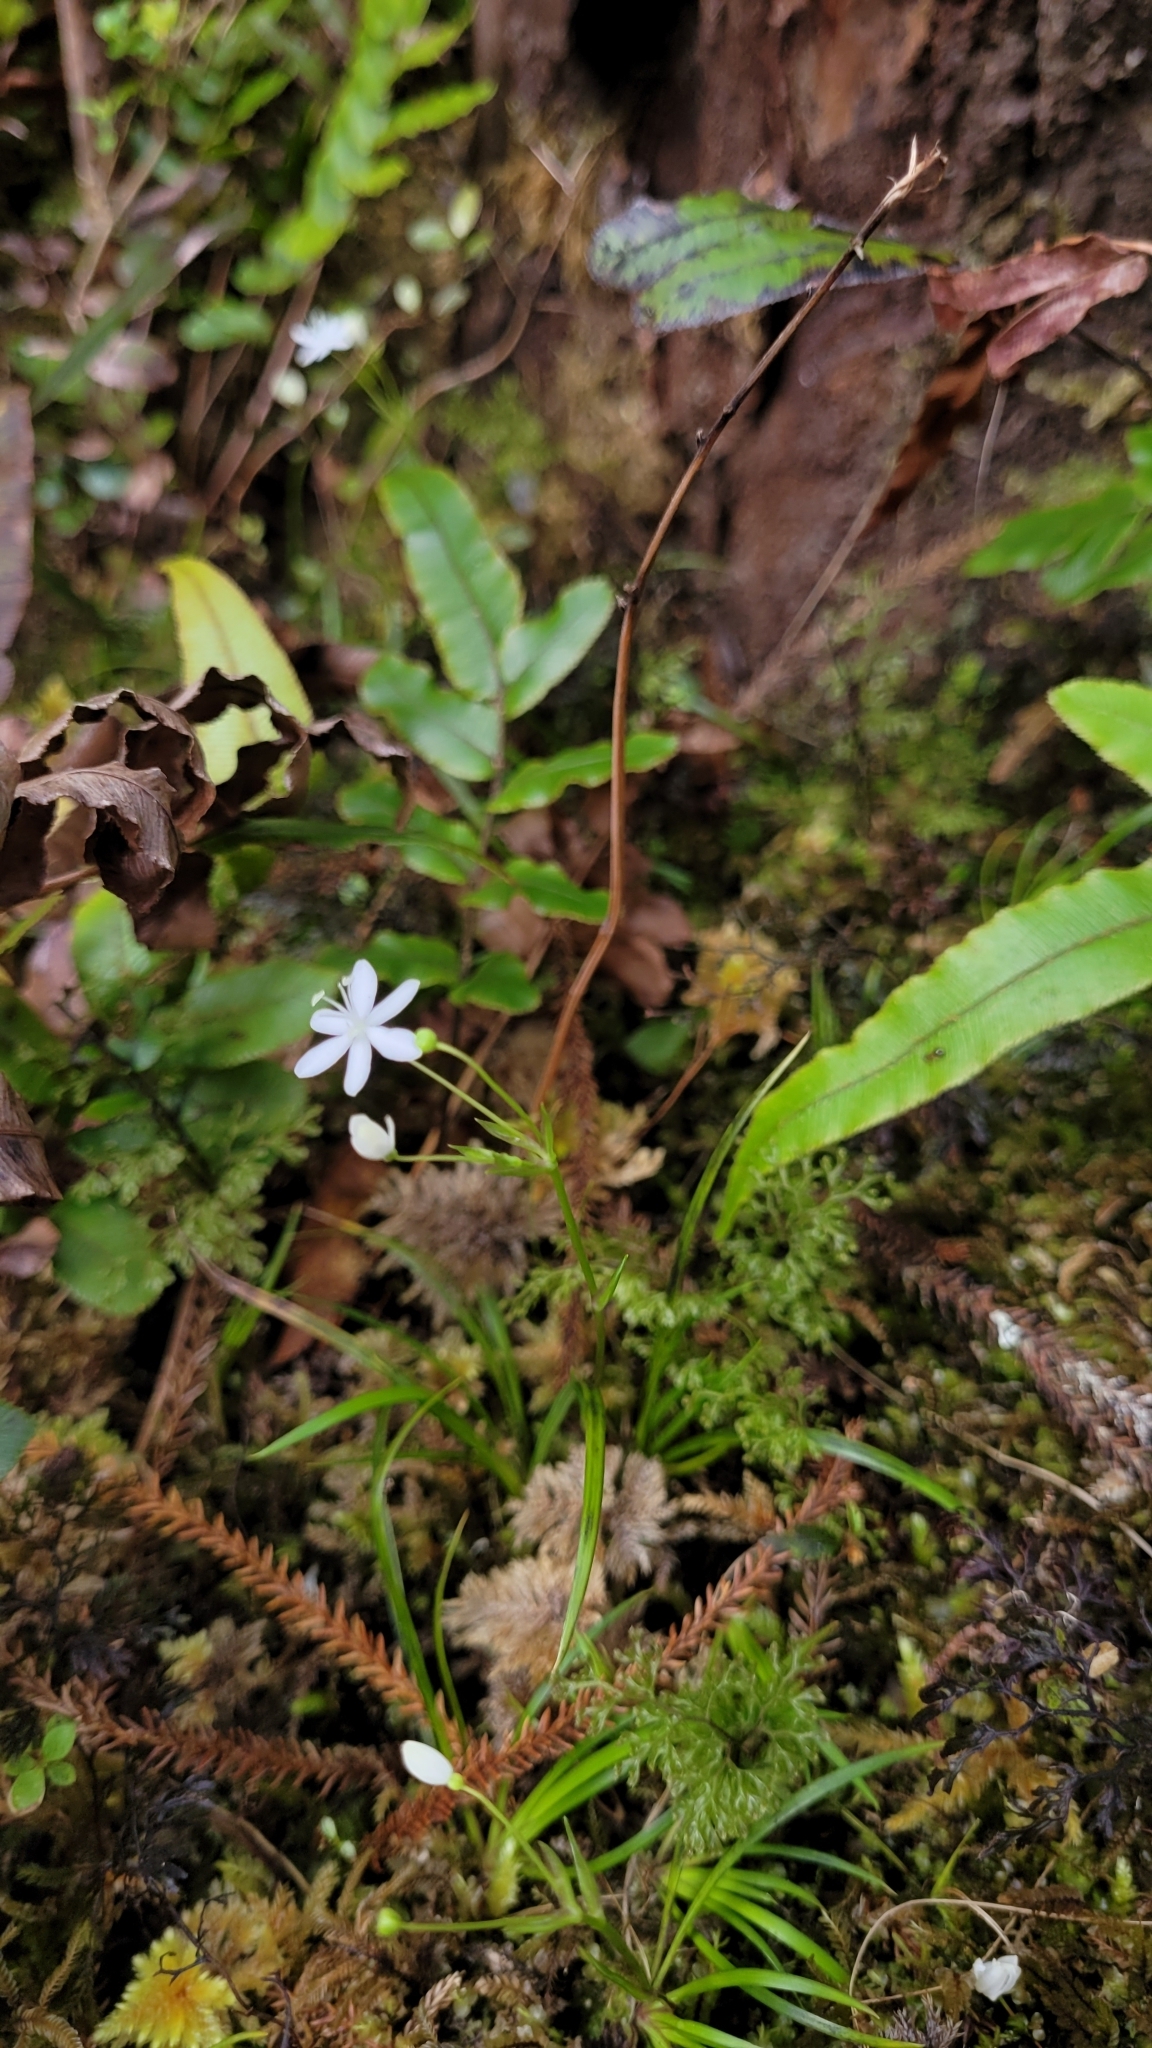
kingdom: Plantae
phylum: Tracheophyta
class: Liliopsida
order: Asparagales
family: Iridaceae
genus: Libertia
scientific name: Libertia micrantha
